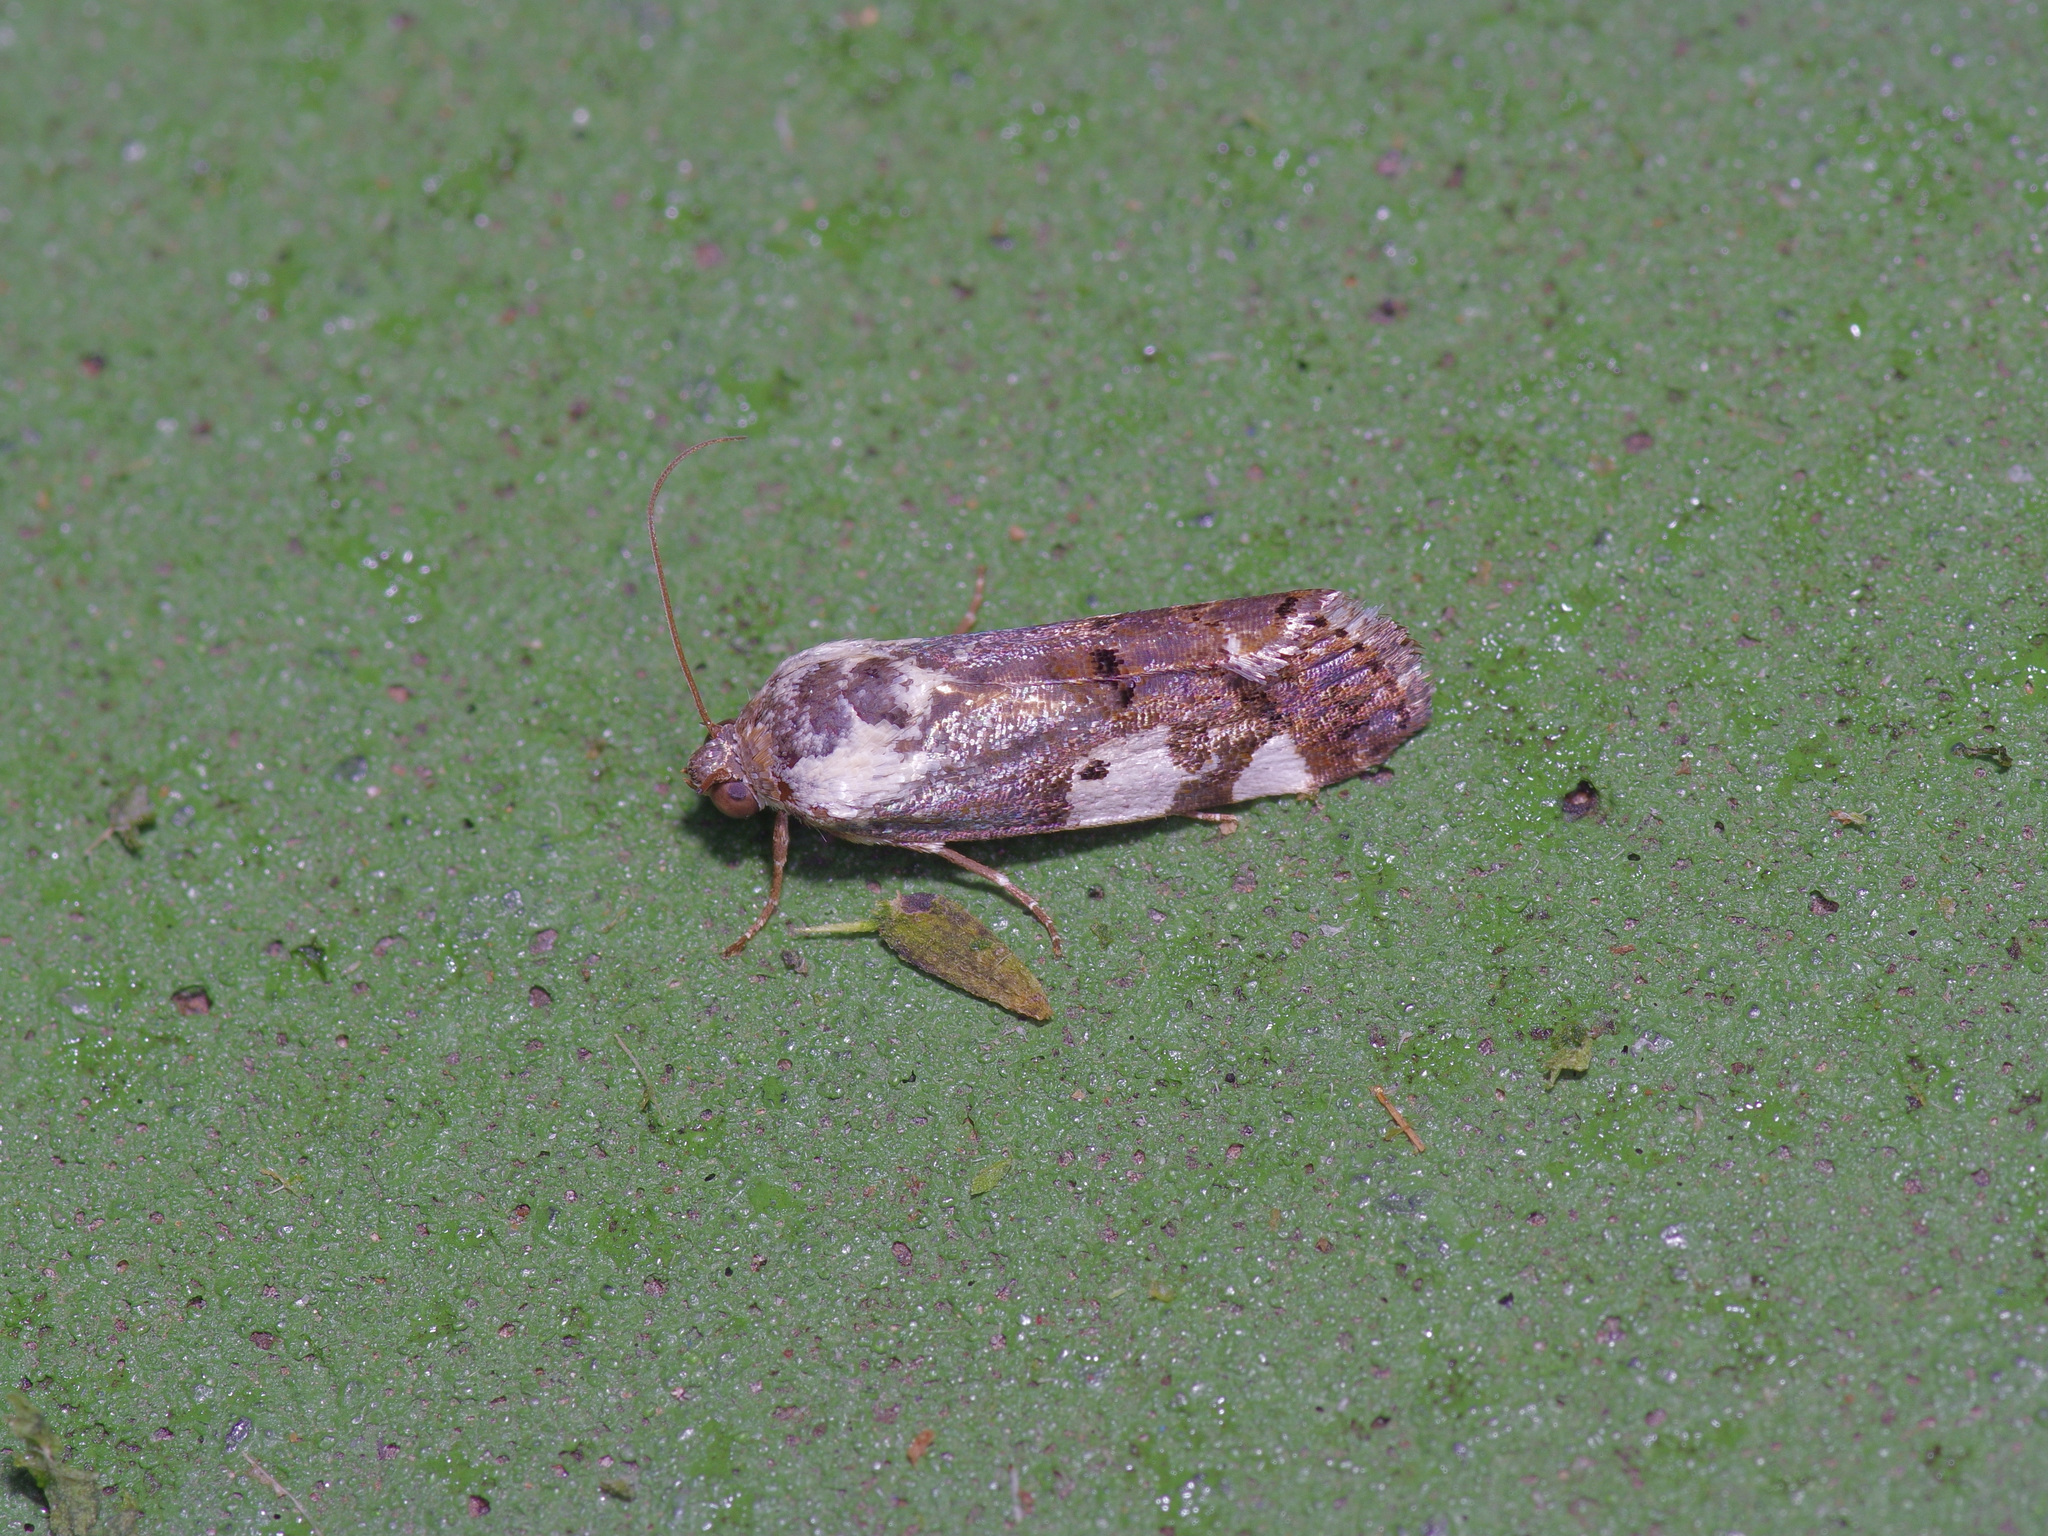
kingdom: Animalia
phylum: Arthropoda
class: Insecta
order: Lepidoptera
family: Noctuidae
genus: Acontia
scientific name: Acontia aprica
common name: Nun
